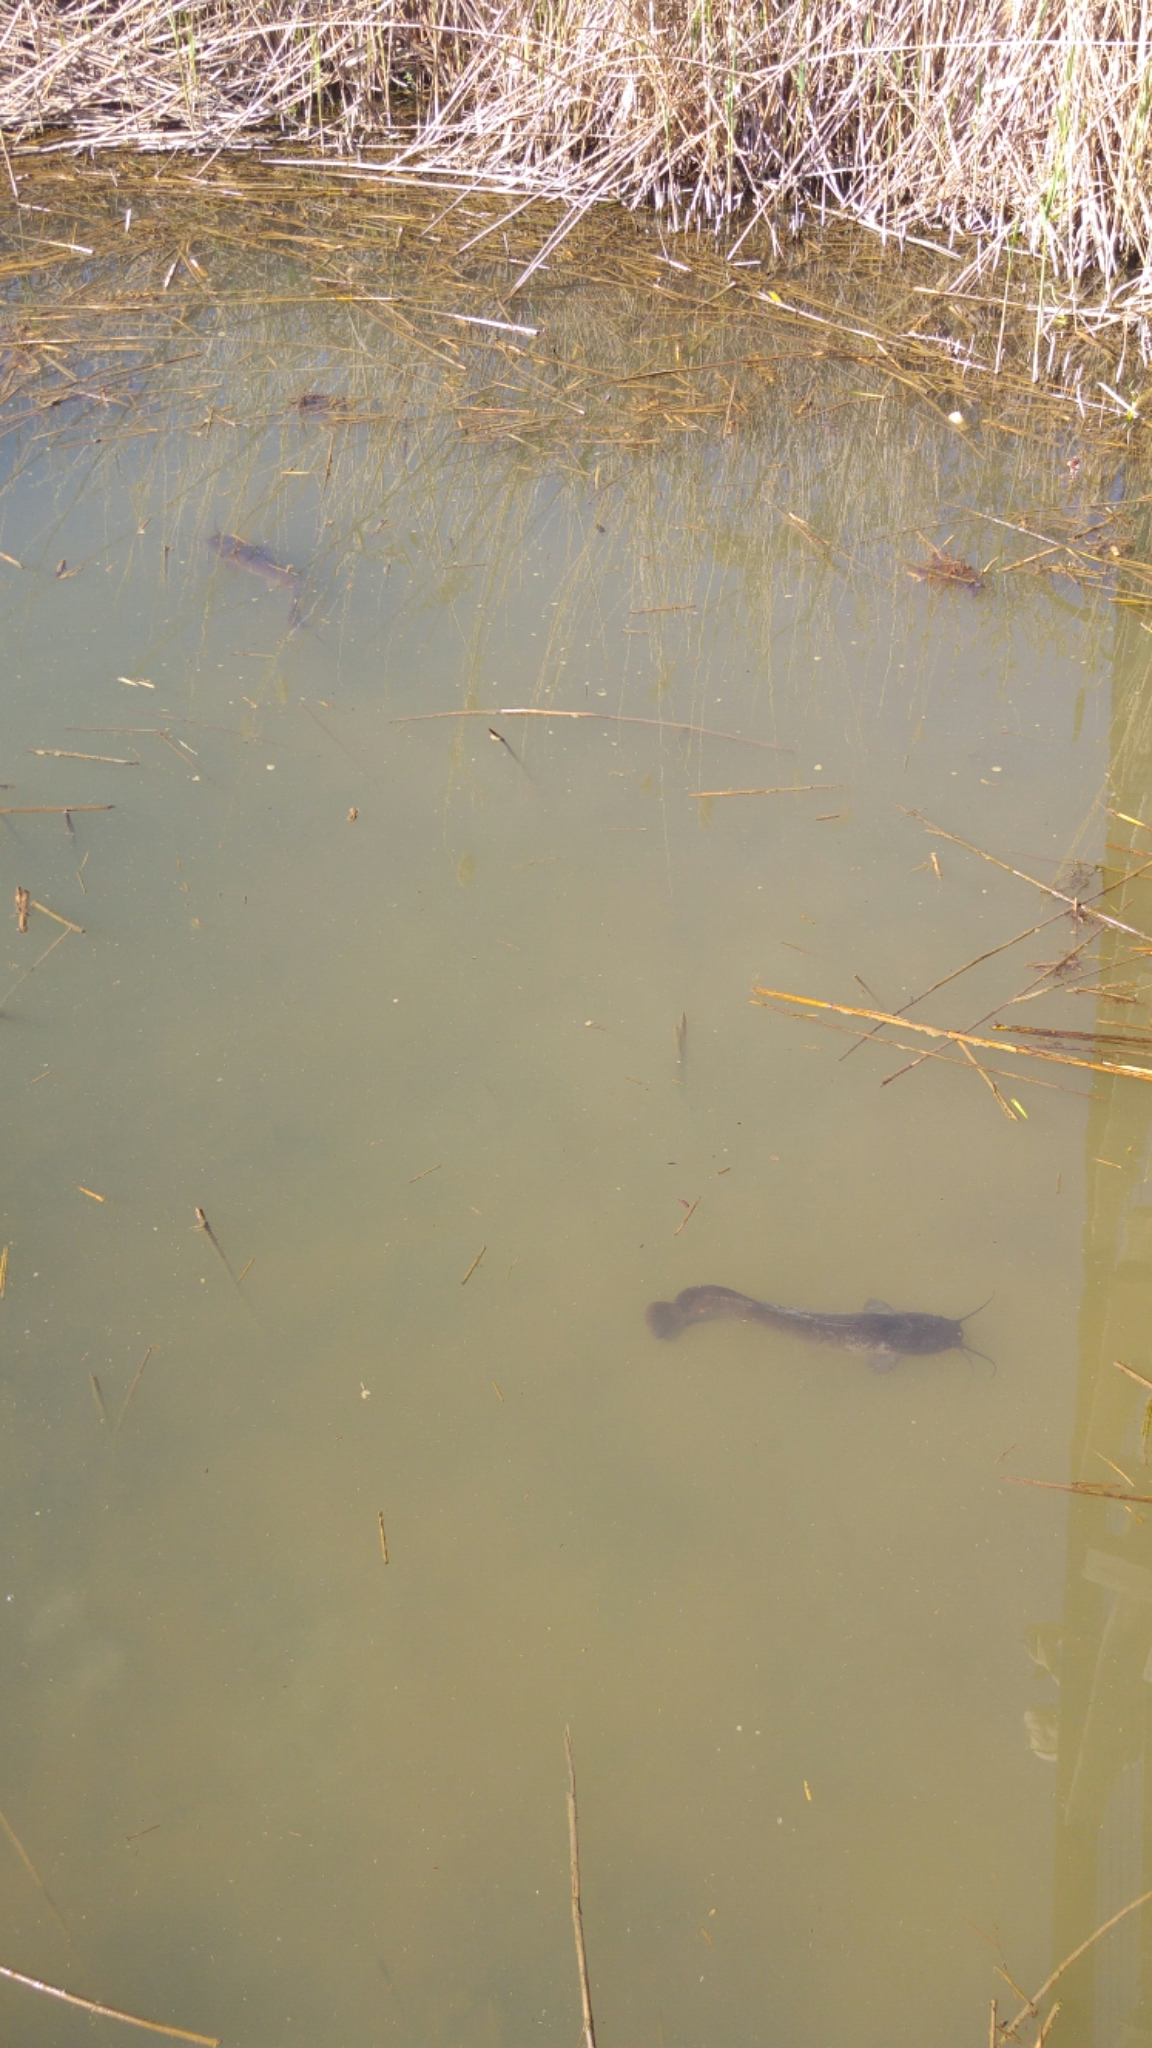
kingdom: Animalia
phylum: Chordata
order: Siluriformes
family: Clariidae
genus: Clarias
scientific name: Clarias gariepinus
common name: African catfish
